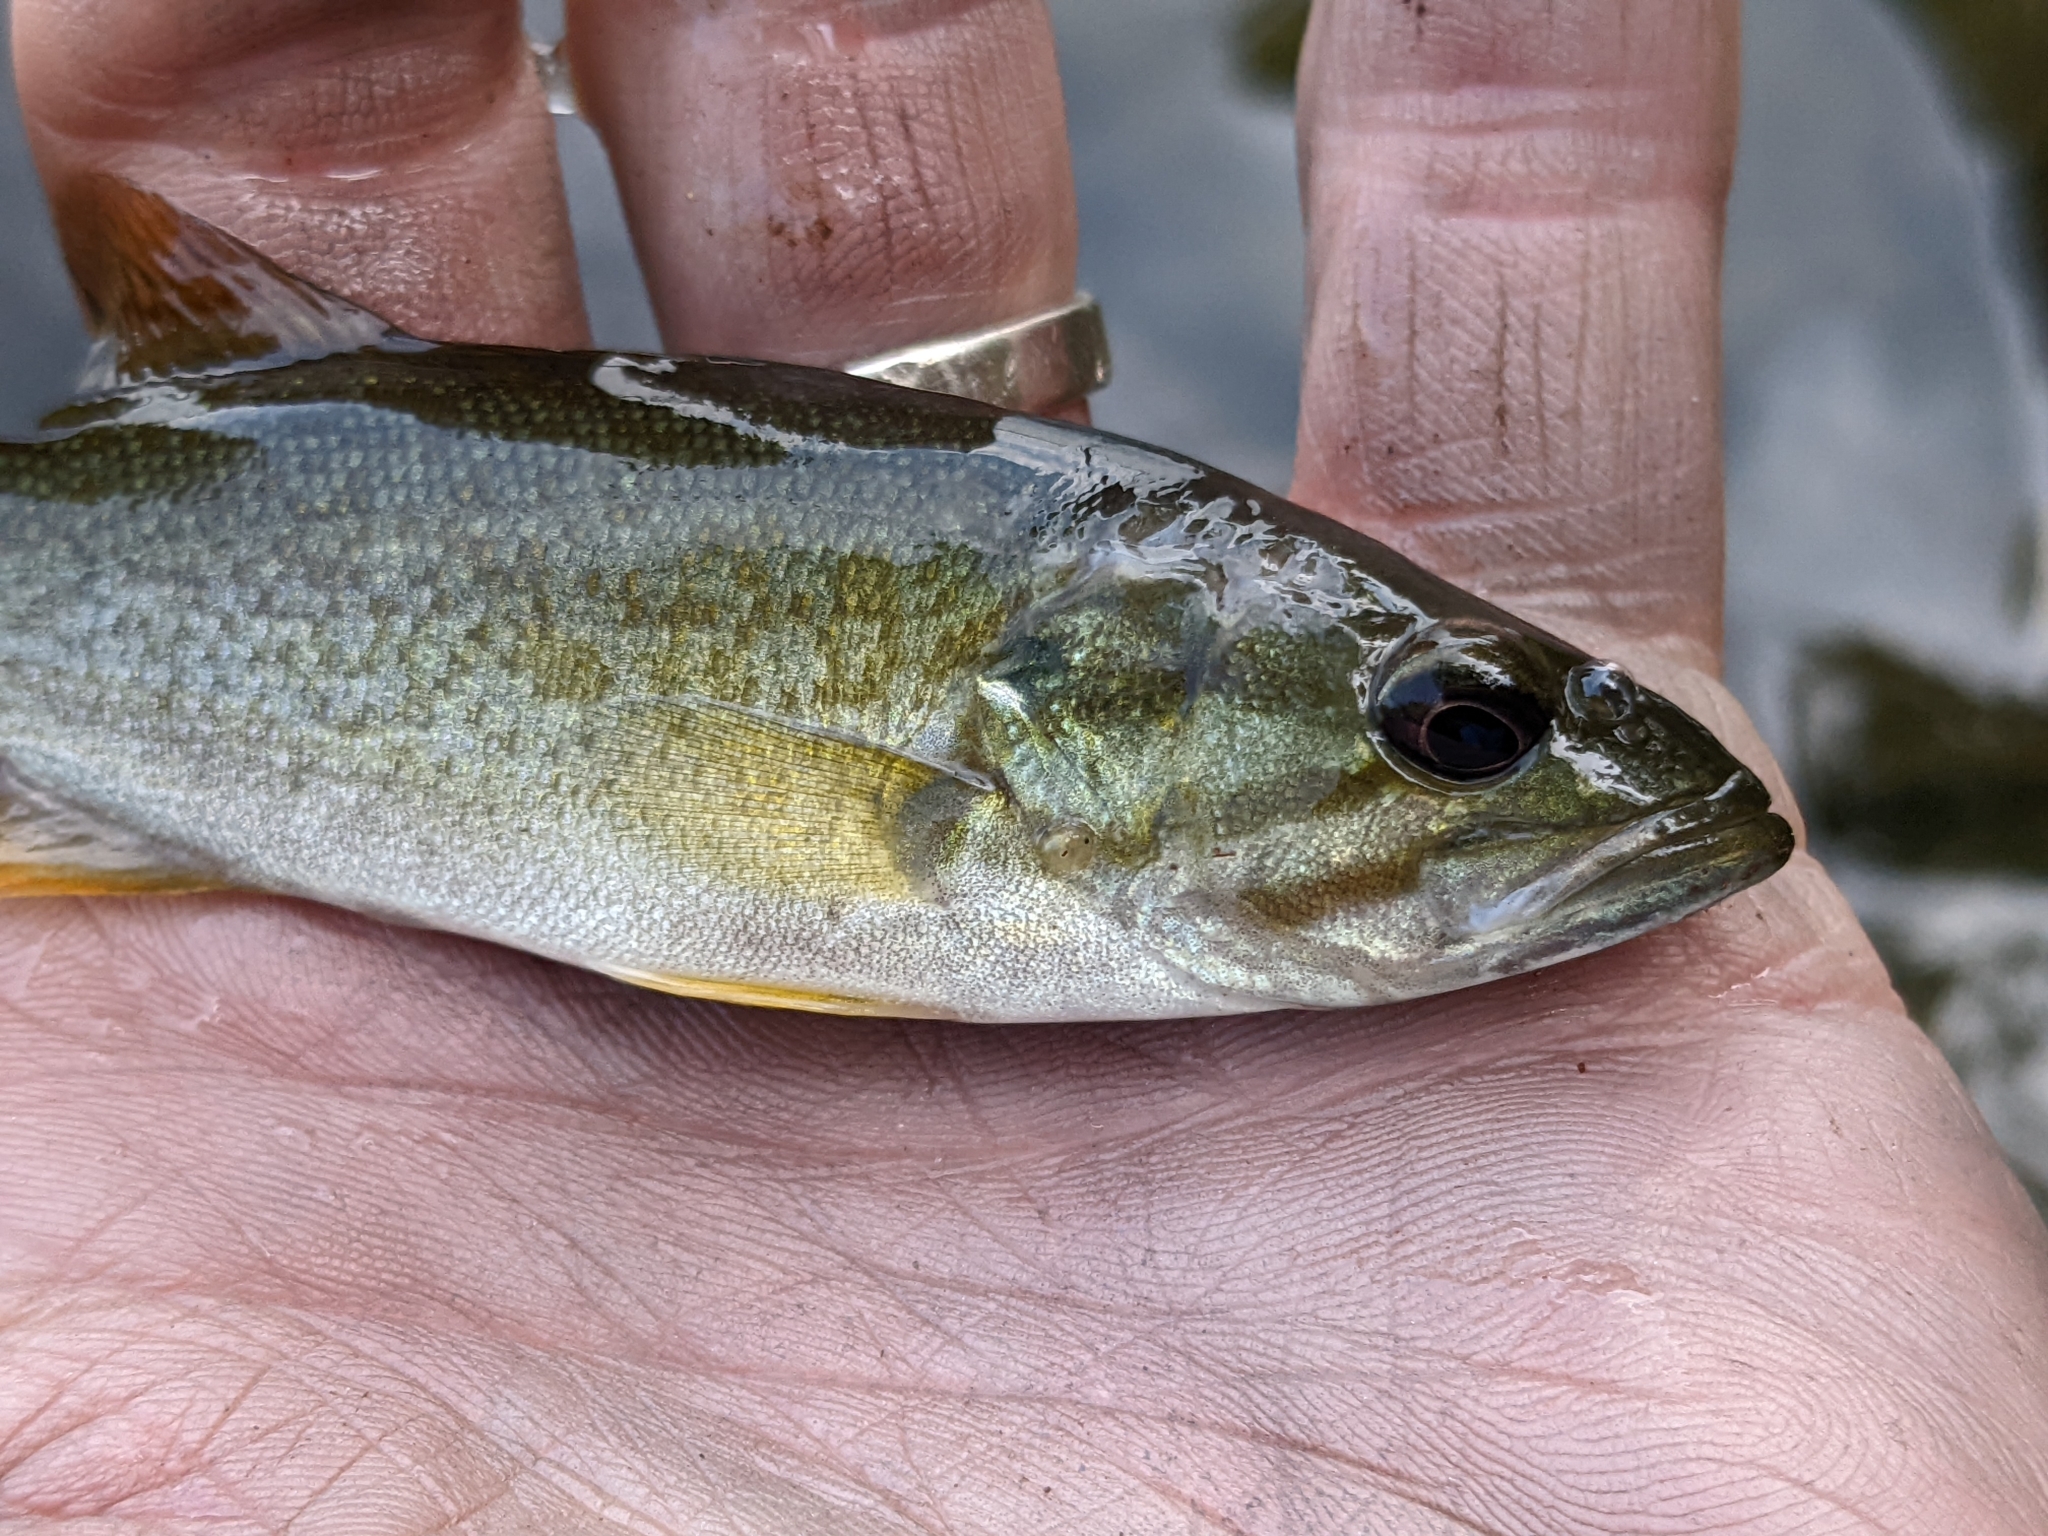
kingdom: Animalia
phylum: Chordata
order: Perciformes
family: Centrarchidae
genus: Micropterus
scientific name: Micropterus dolomieu
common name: Smallmouth bass
